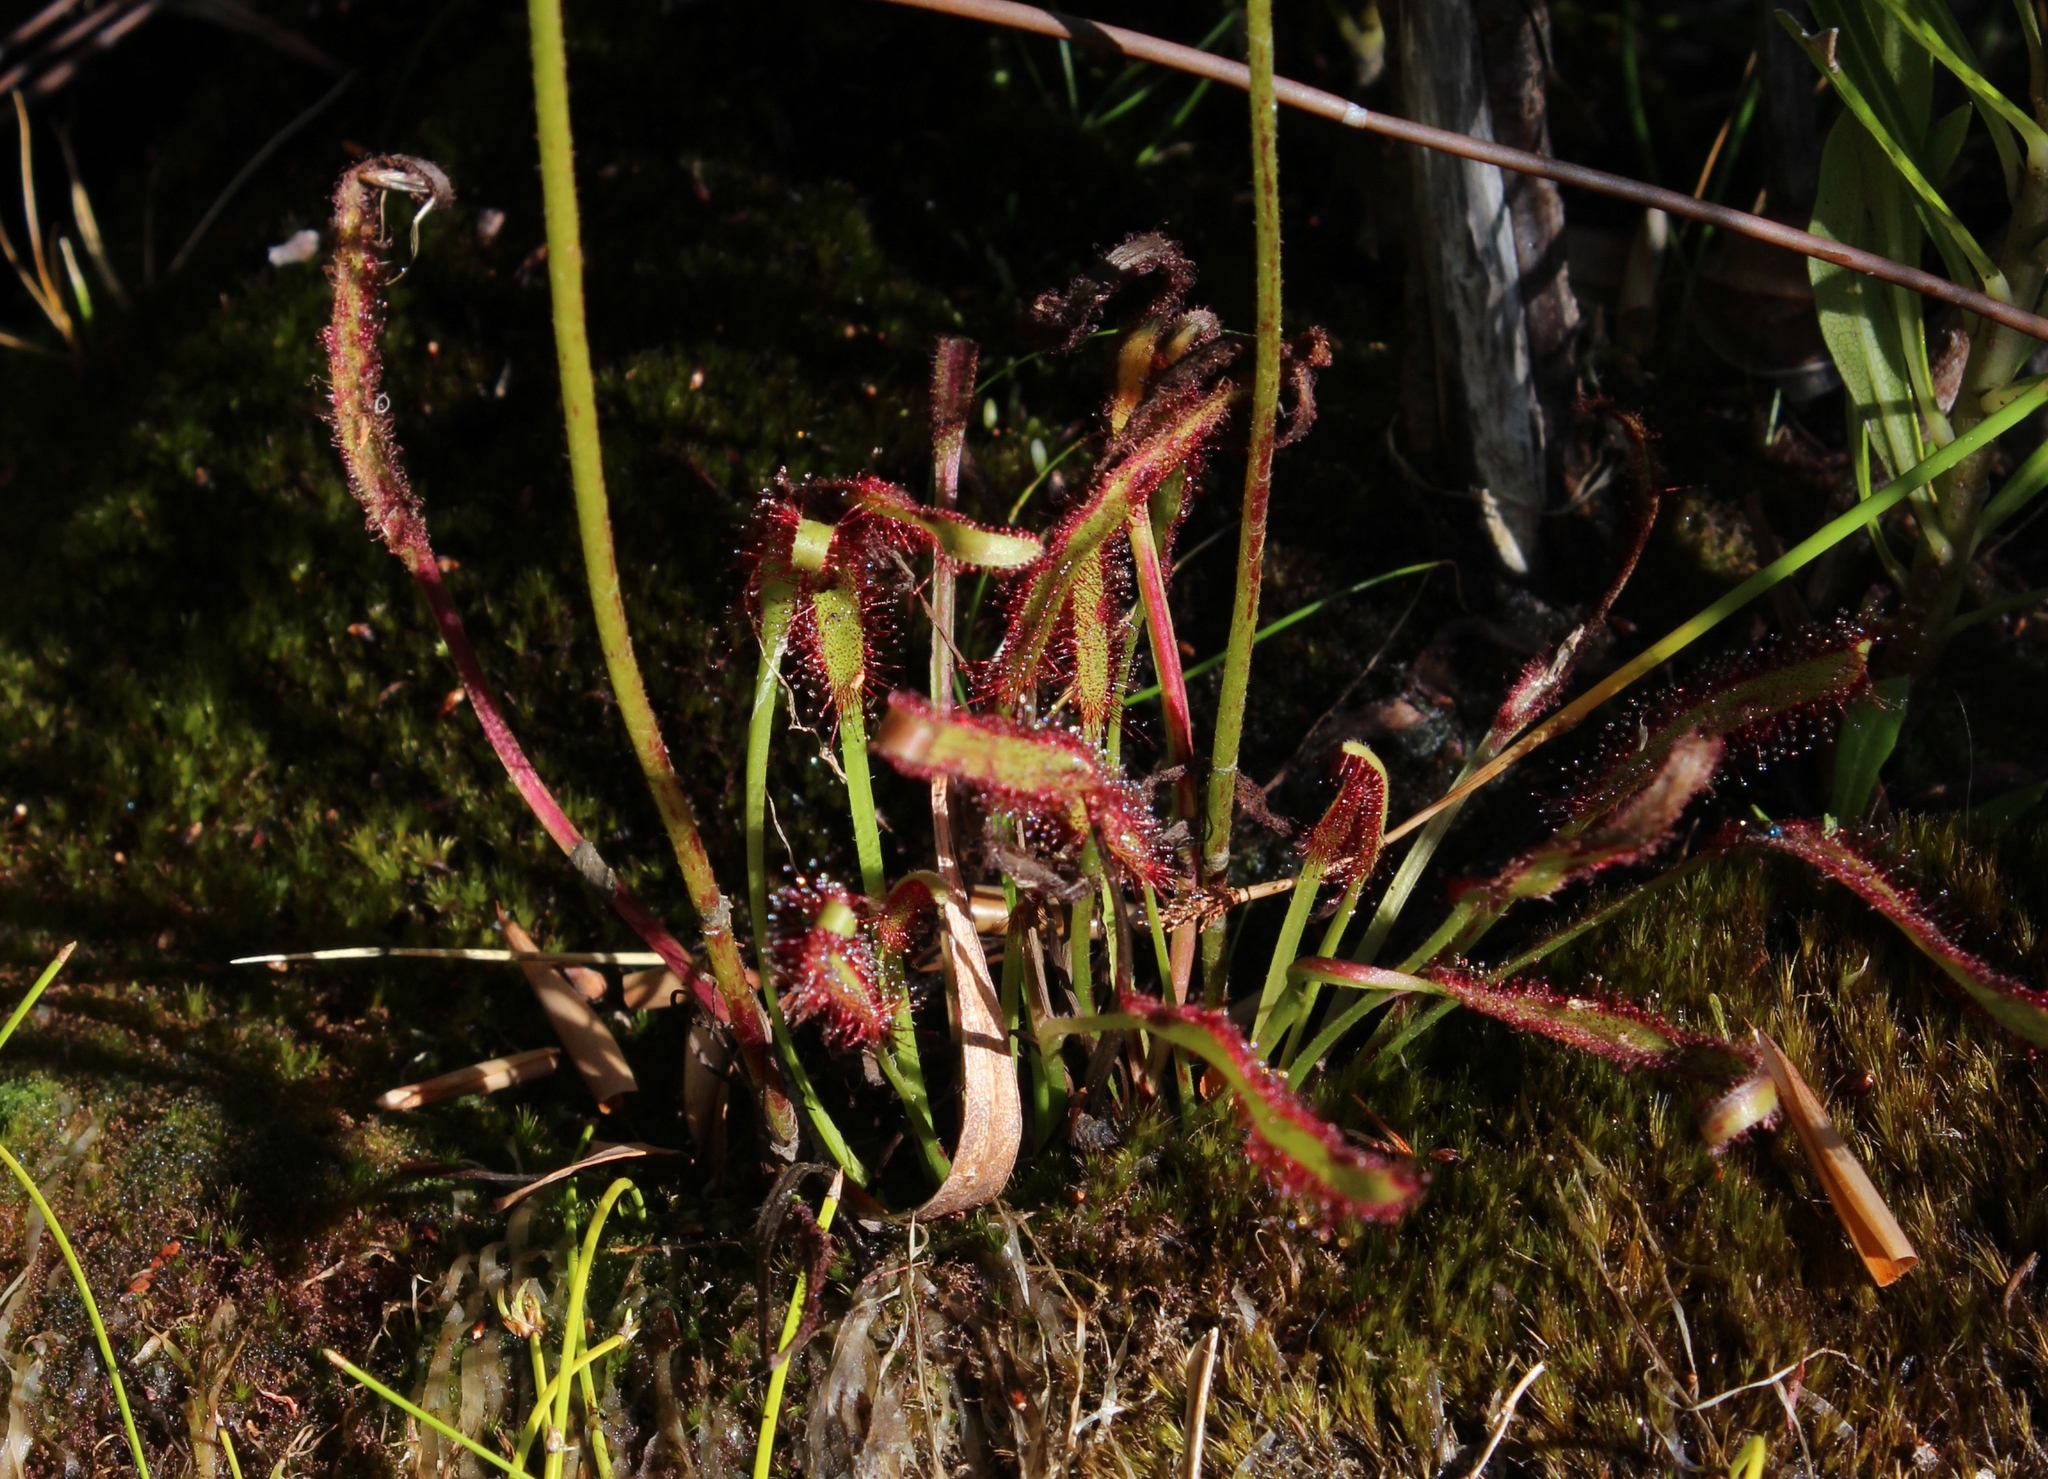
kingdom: Plantae
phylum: Tracheophyta
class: Magnoliopsida
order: Caryophyllales
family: Droseraceae
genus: Drosera
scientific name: Drosera capensis
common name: Cape sundew
